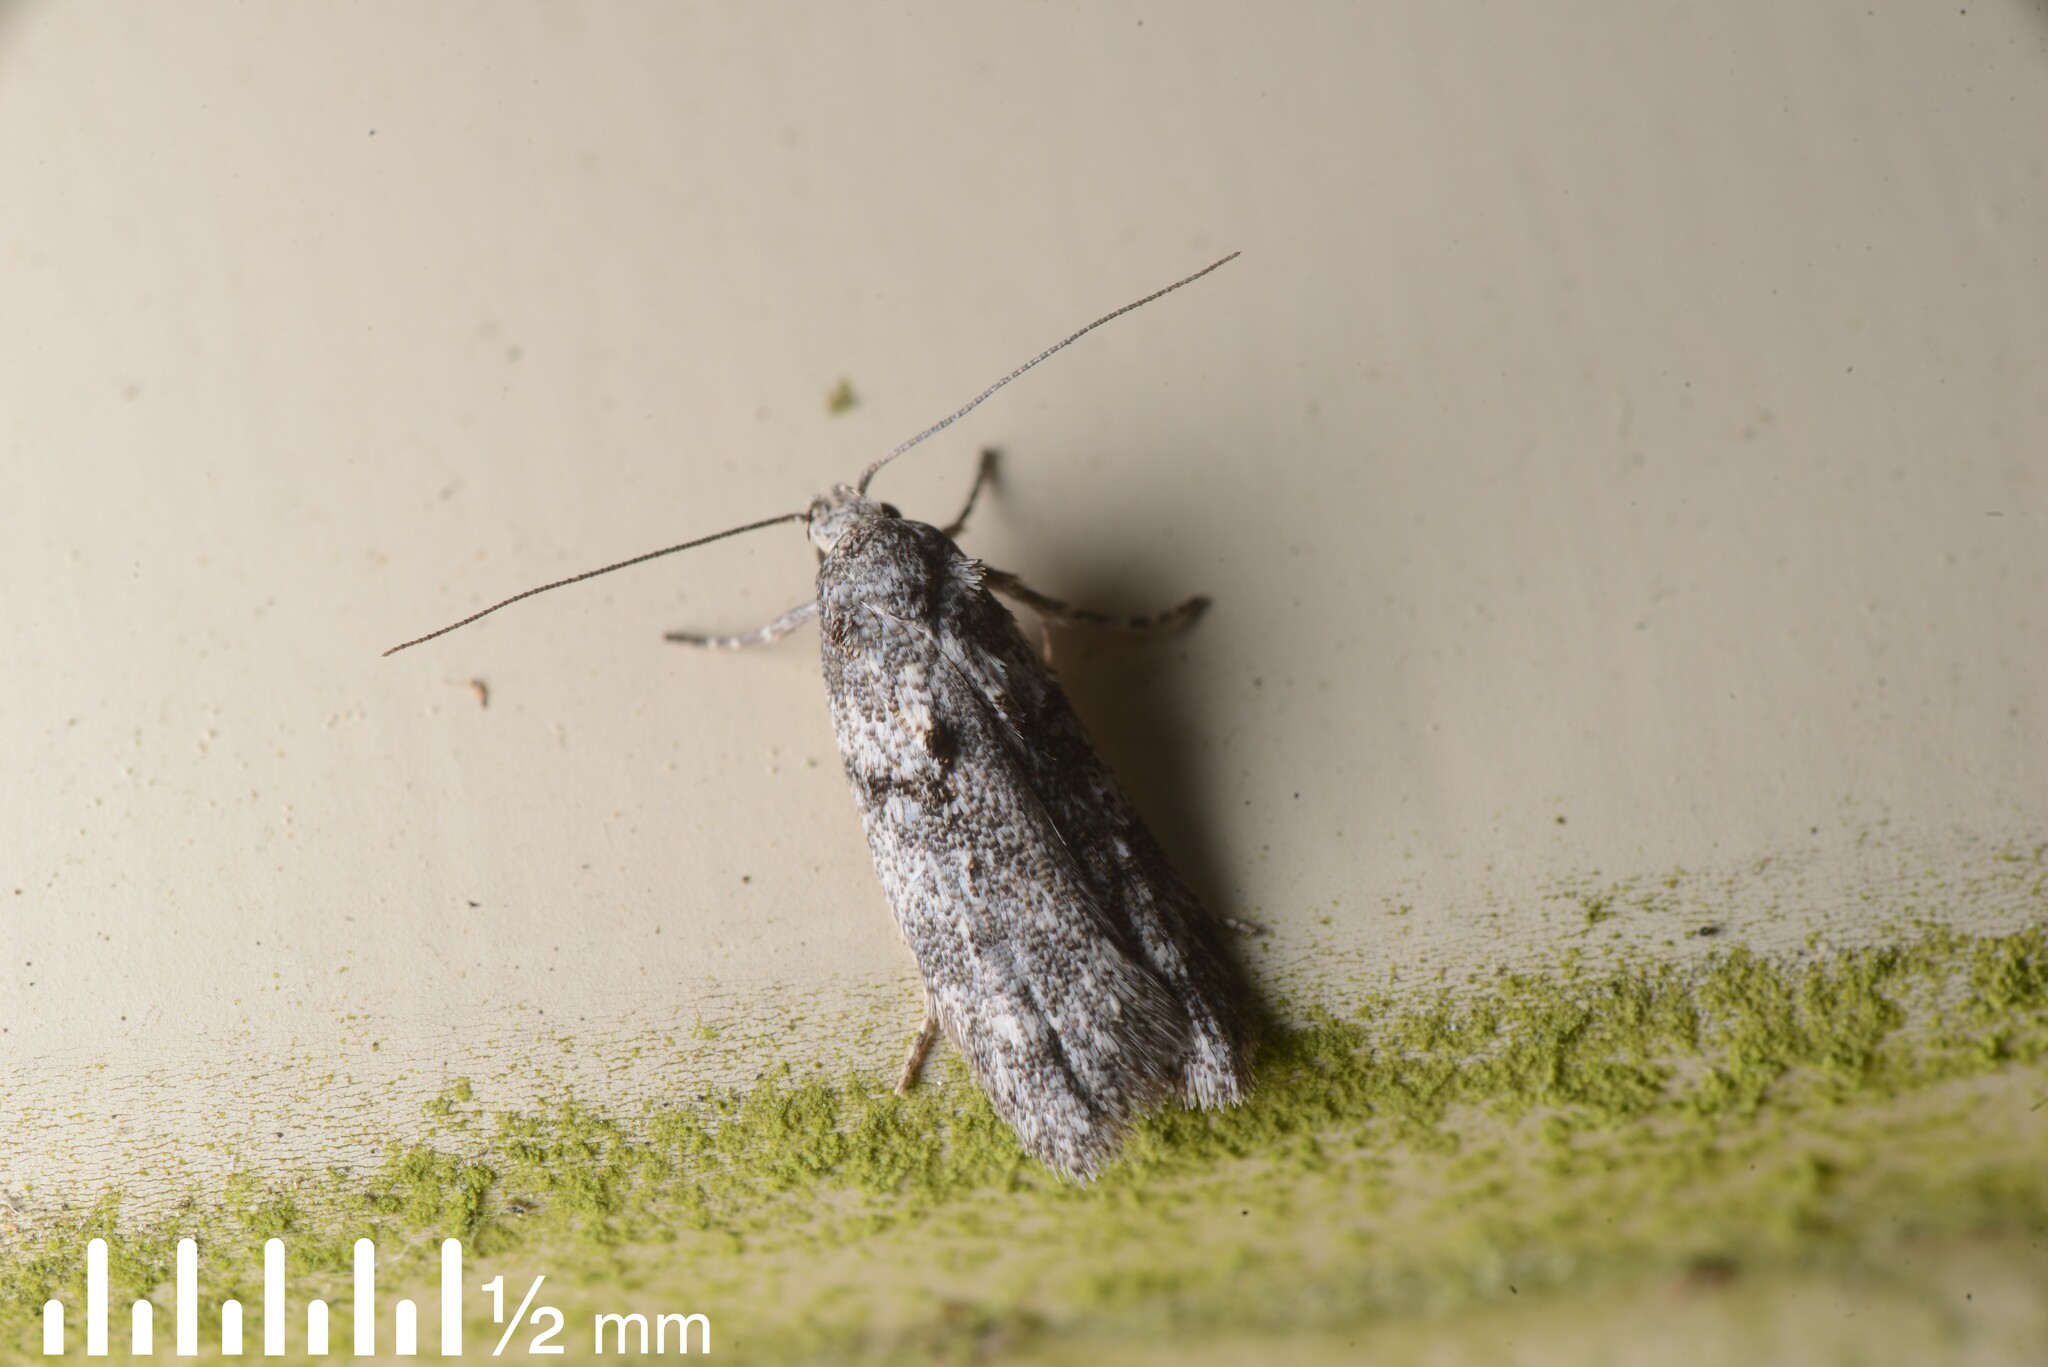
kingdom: Animalia
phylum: Arthropoda
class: Insecta
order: Lepidoptera
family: Oecophoridae
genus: Izatha
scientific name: Izatha convulsella
